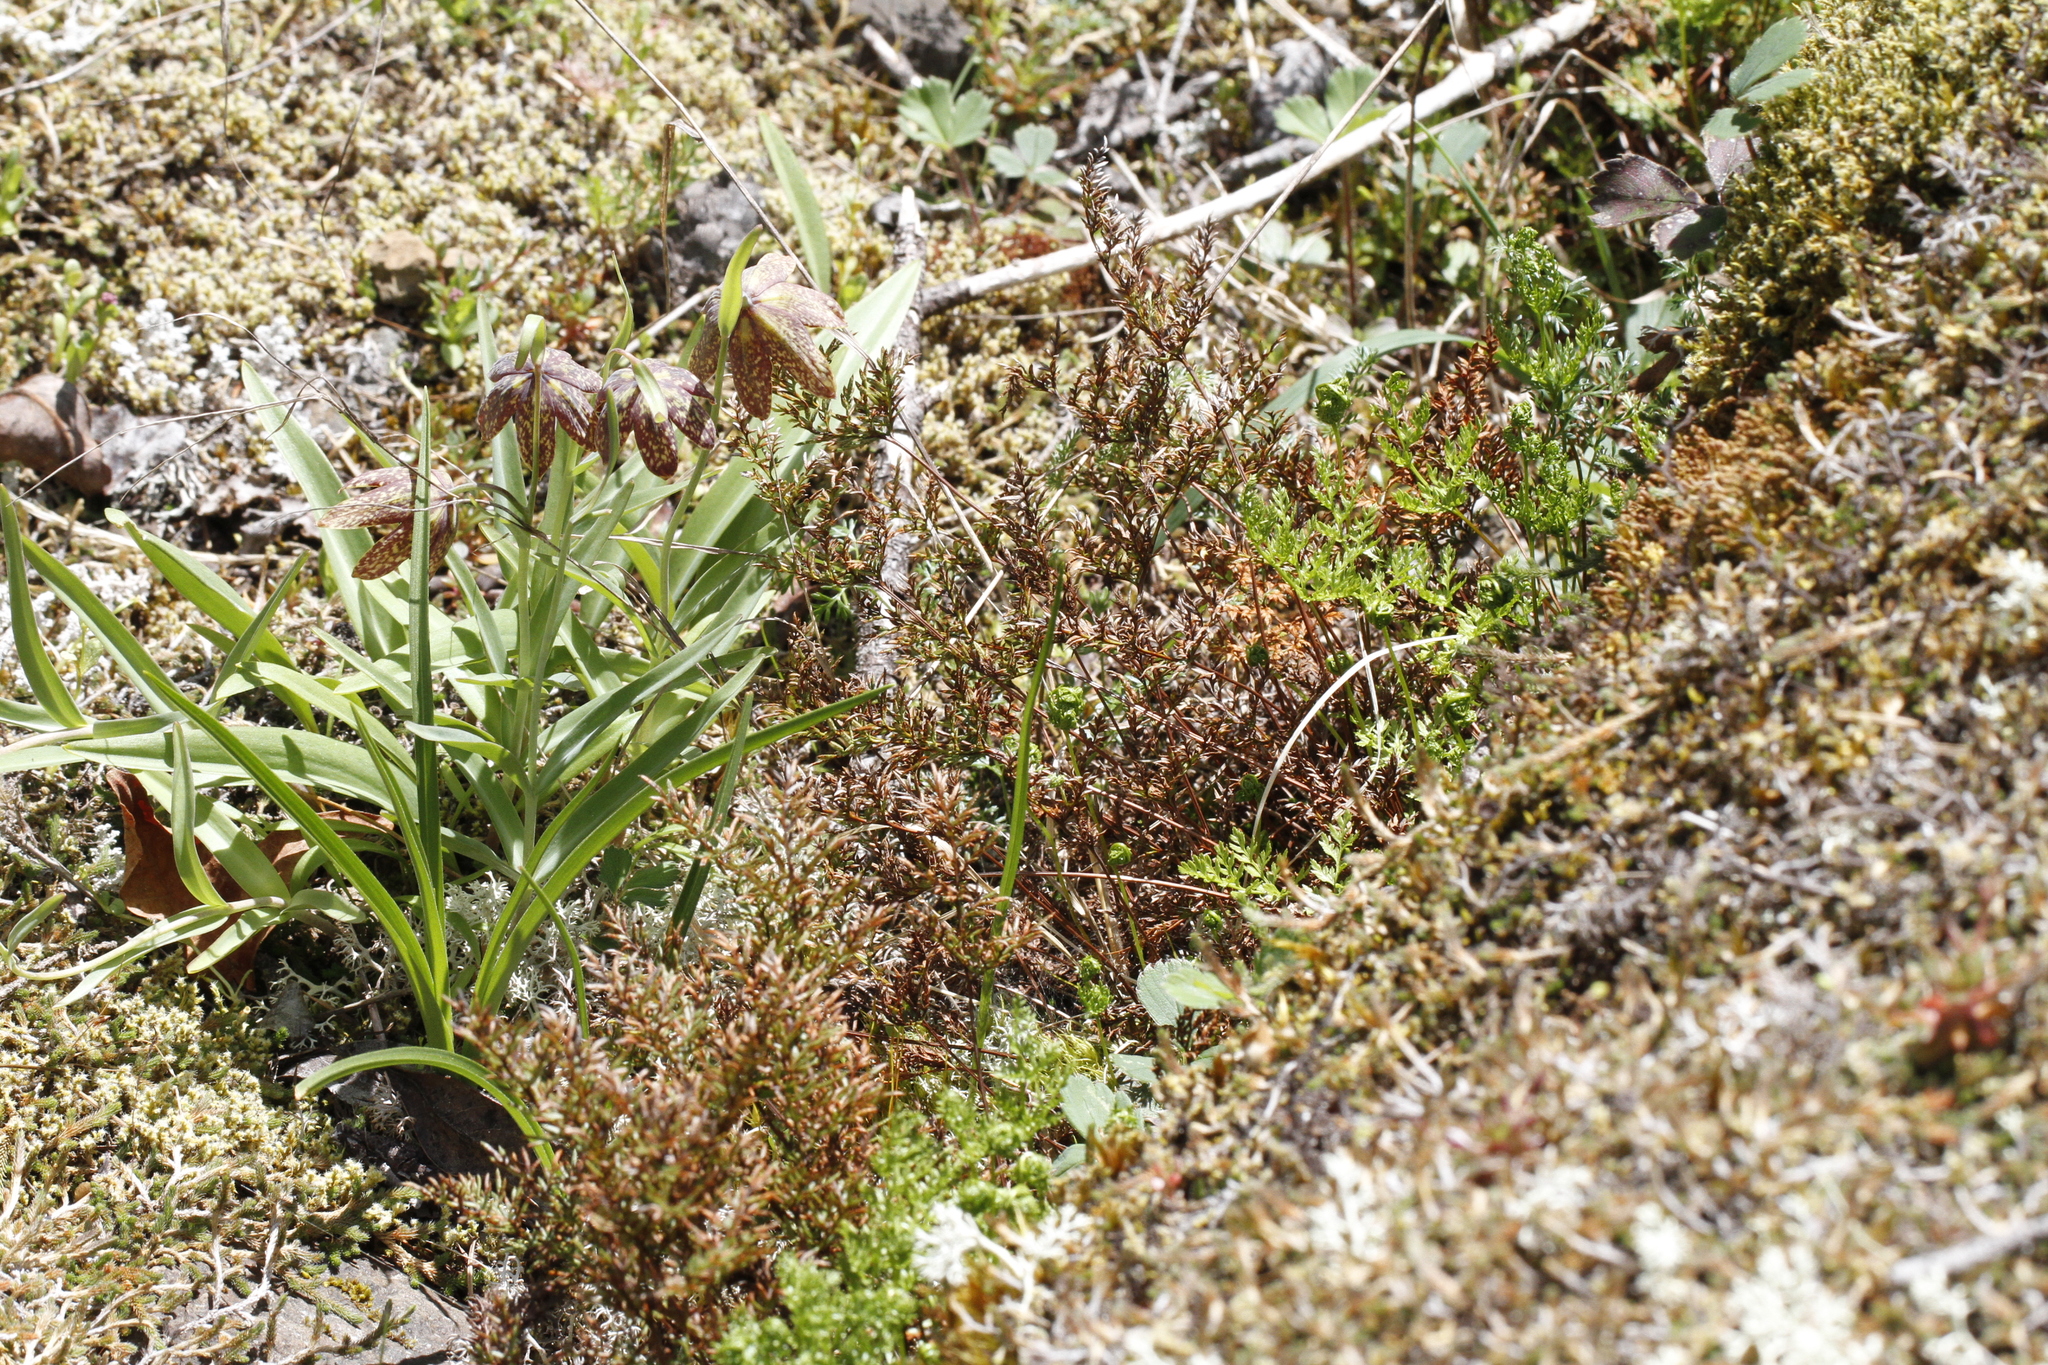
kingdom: Plantae
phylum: Tracheophyta
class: Liliopsida
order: Liliales
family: Liliaceae
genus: Fritillaria
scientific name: Fritillaria affinis
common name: Ojai fritillary
